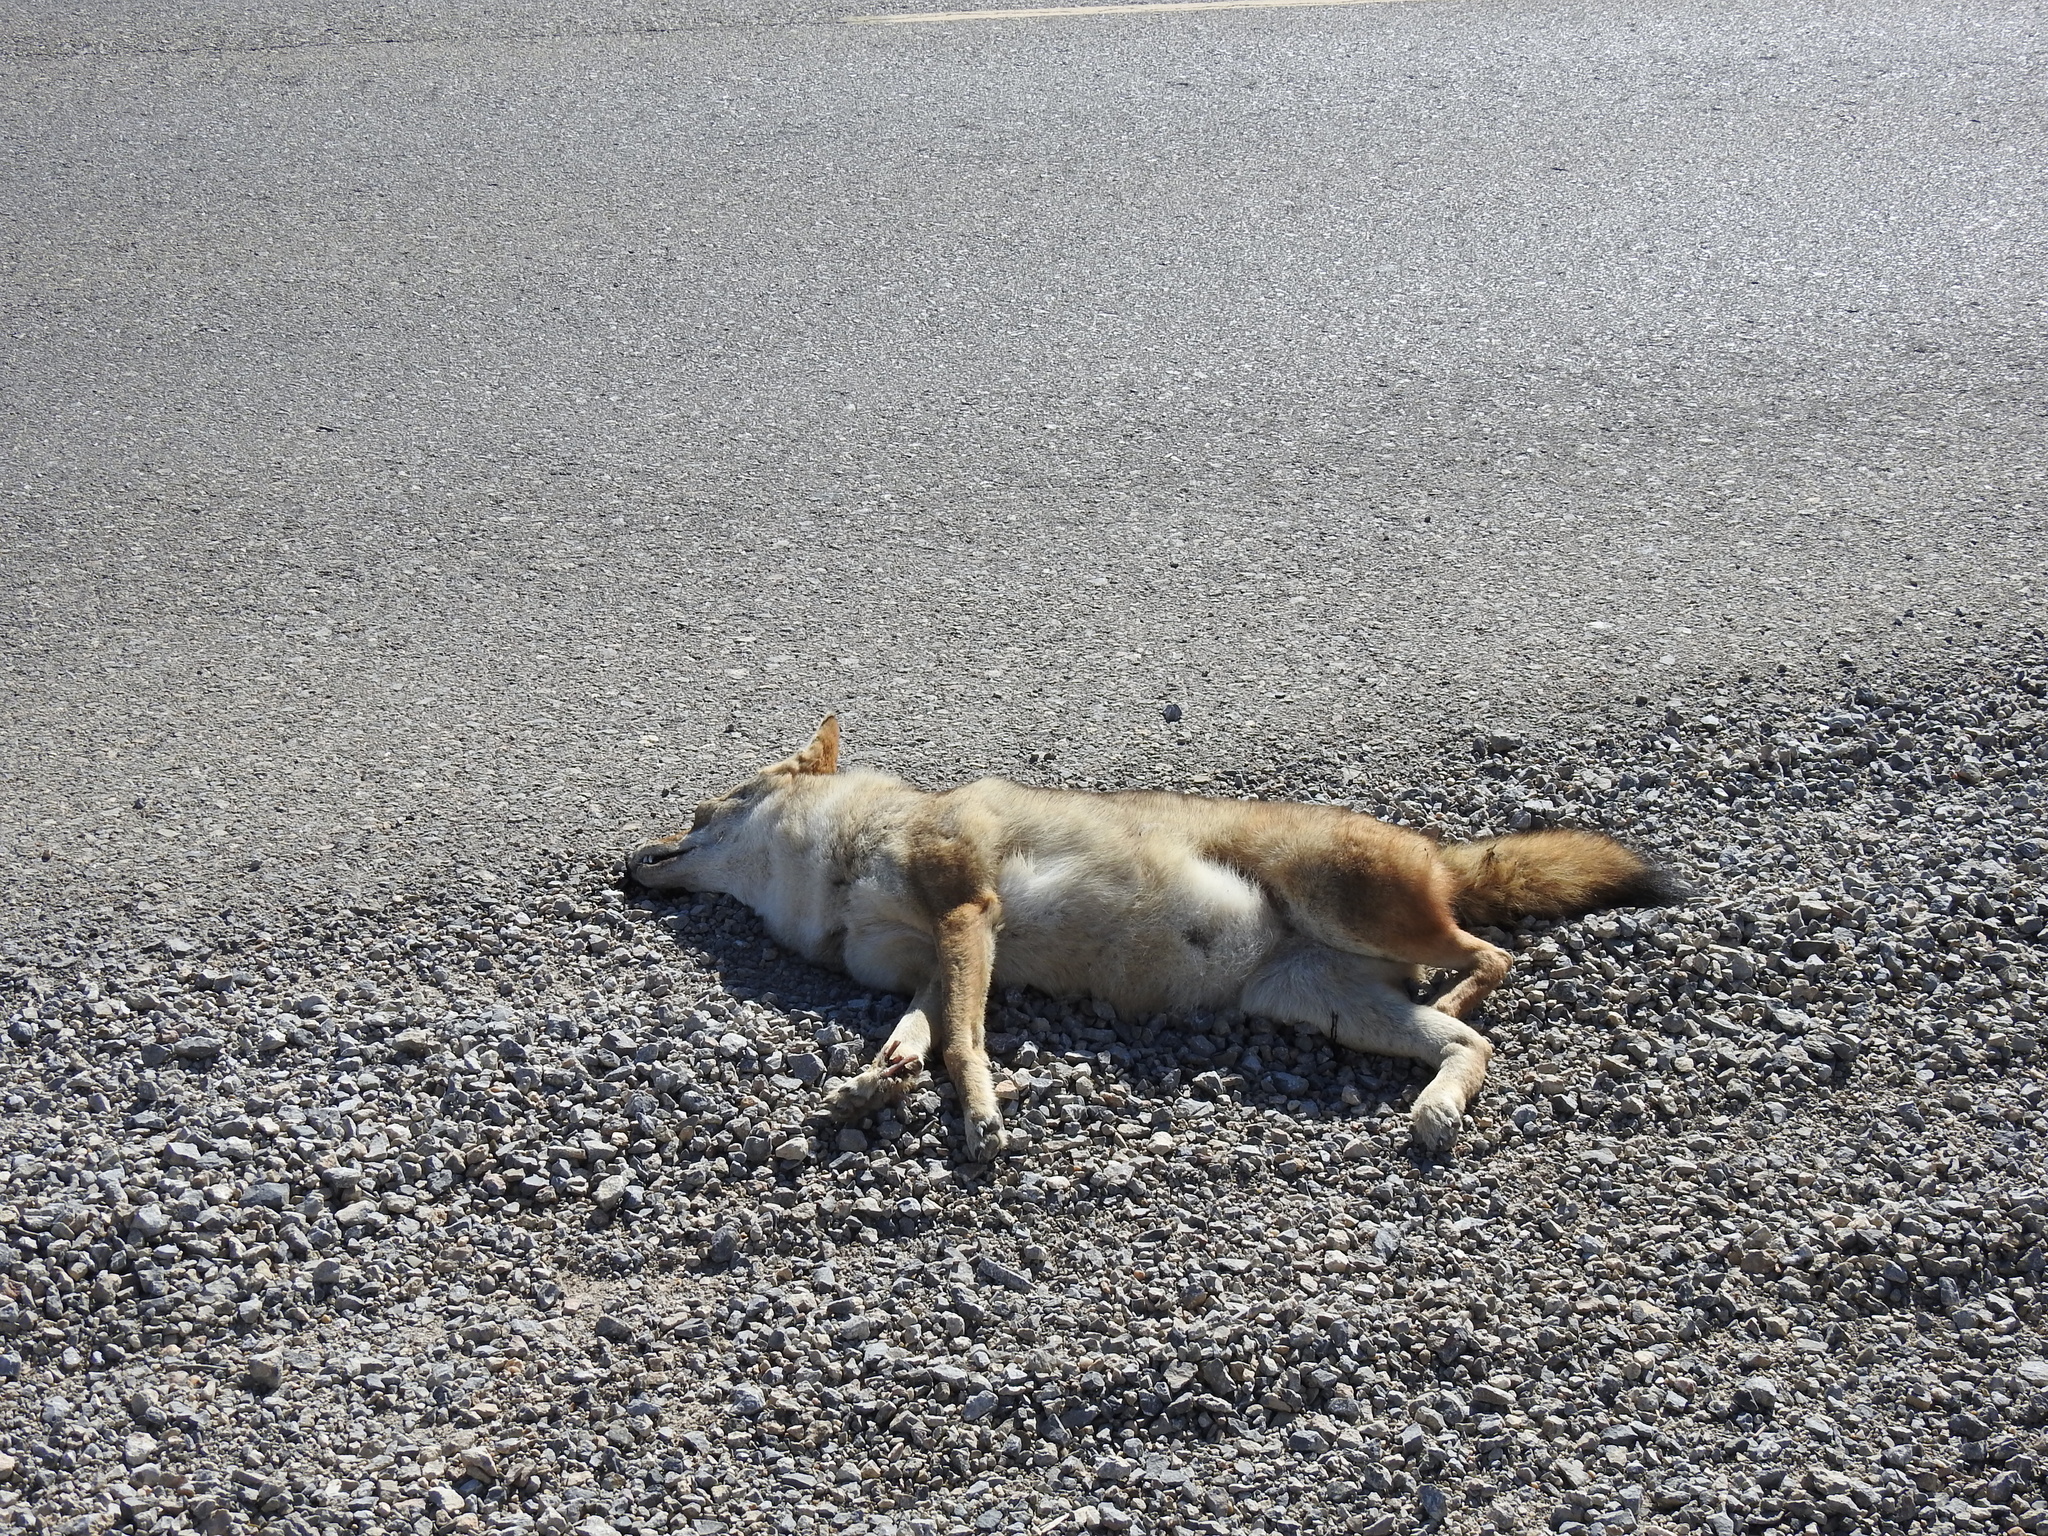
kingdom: Animalia
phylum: Chordata
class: Mammalia
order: Carnivora
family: Canidae
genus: Canis
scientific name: Canis latrans
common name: Coyote
